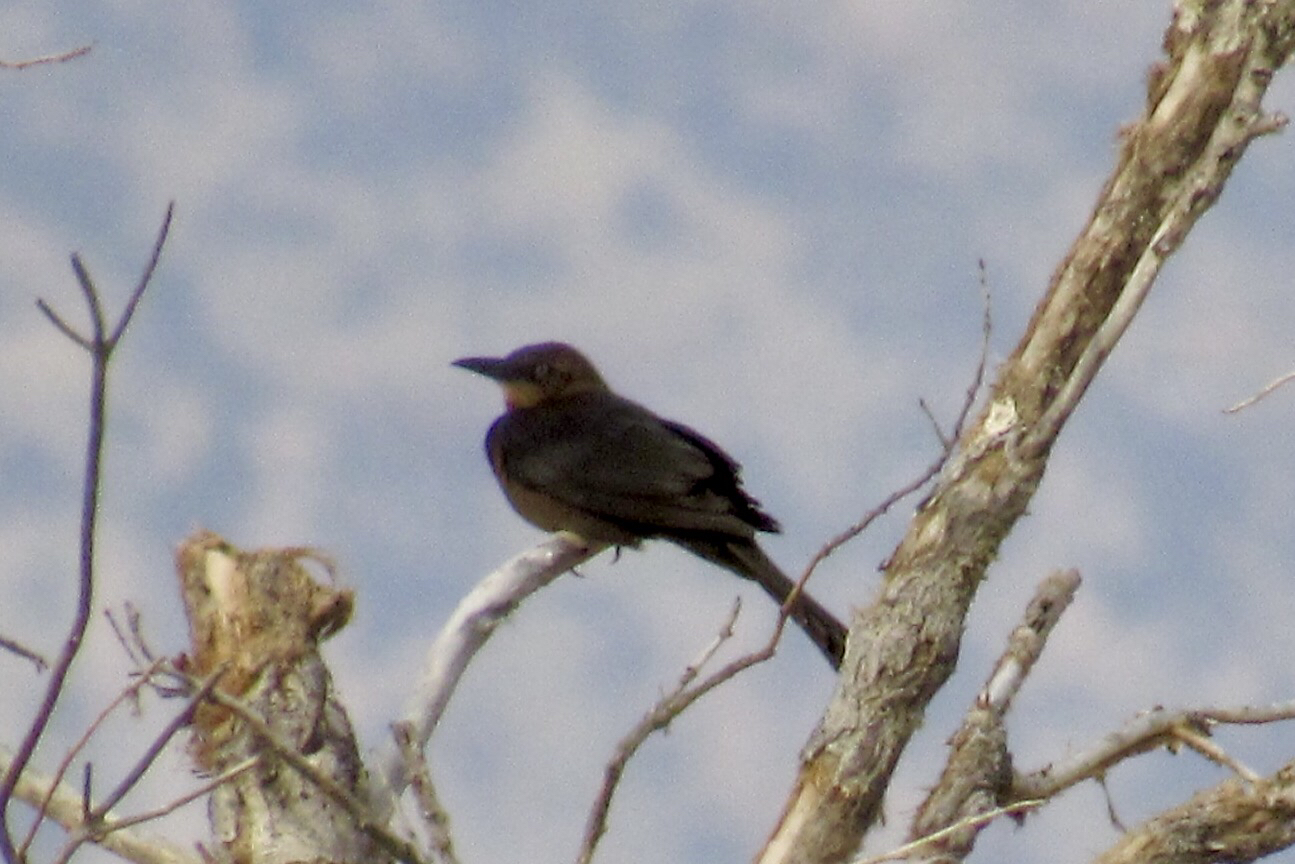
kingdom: Animalia
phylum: Chordata
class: Aves
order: Passeriformes
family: Icteridae
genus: Quiscalus
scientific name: Quiscalus mexicanus
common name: Great-tailed grackle
